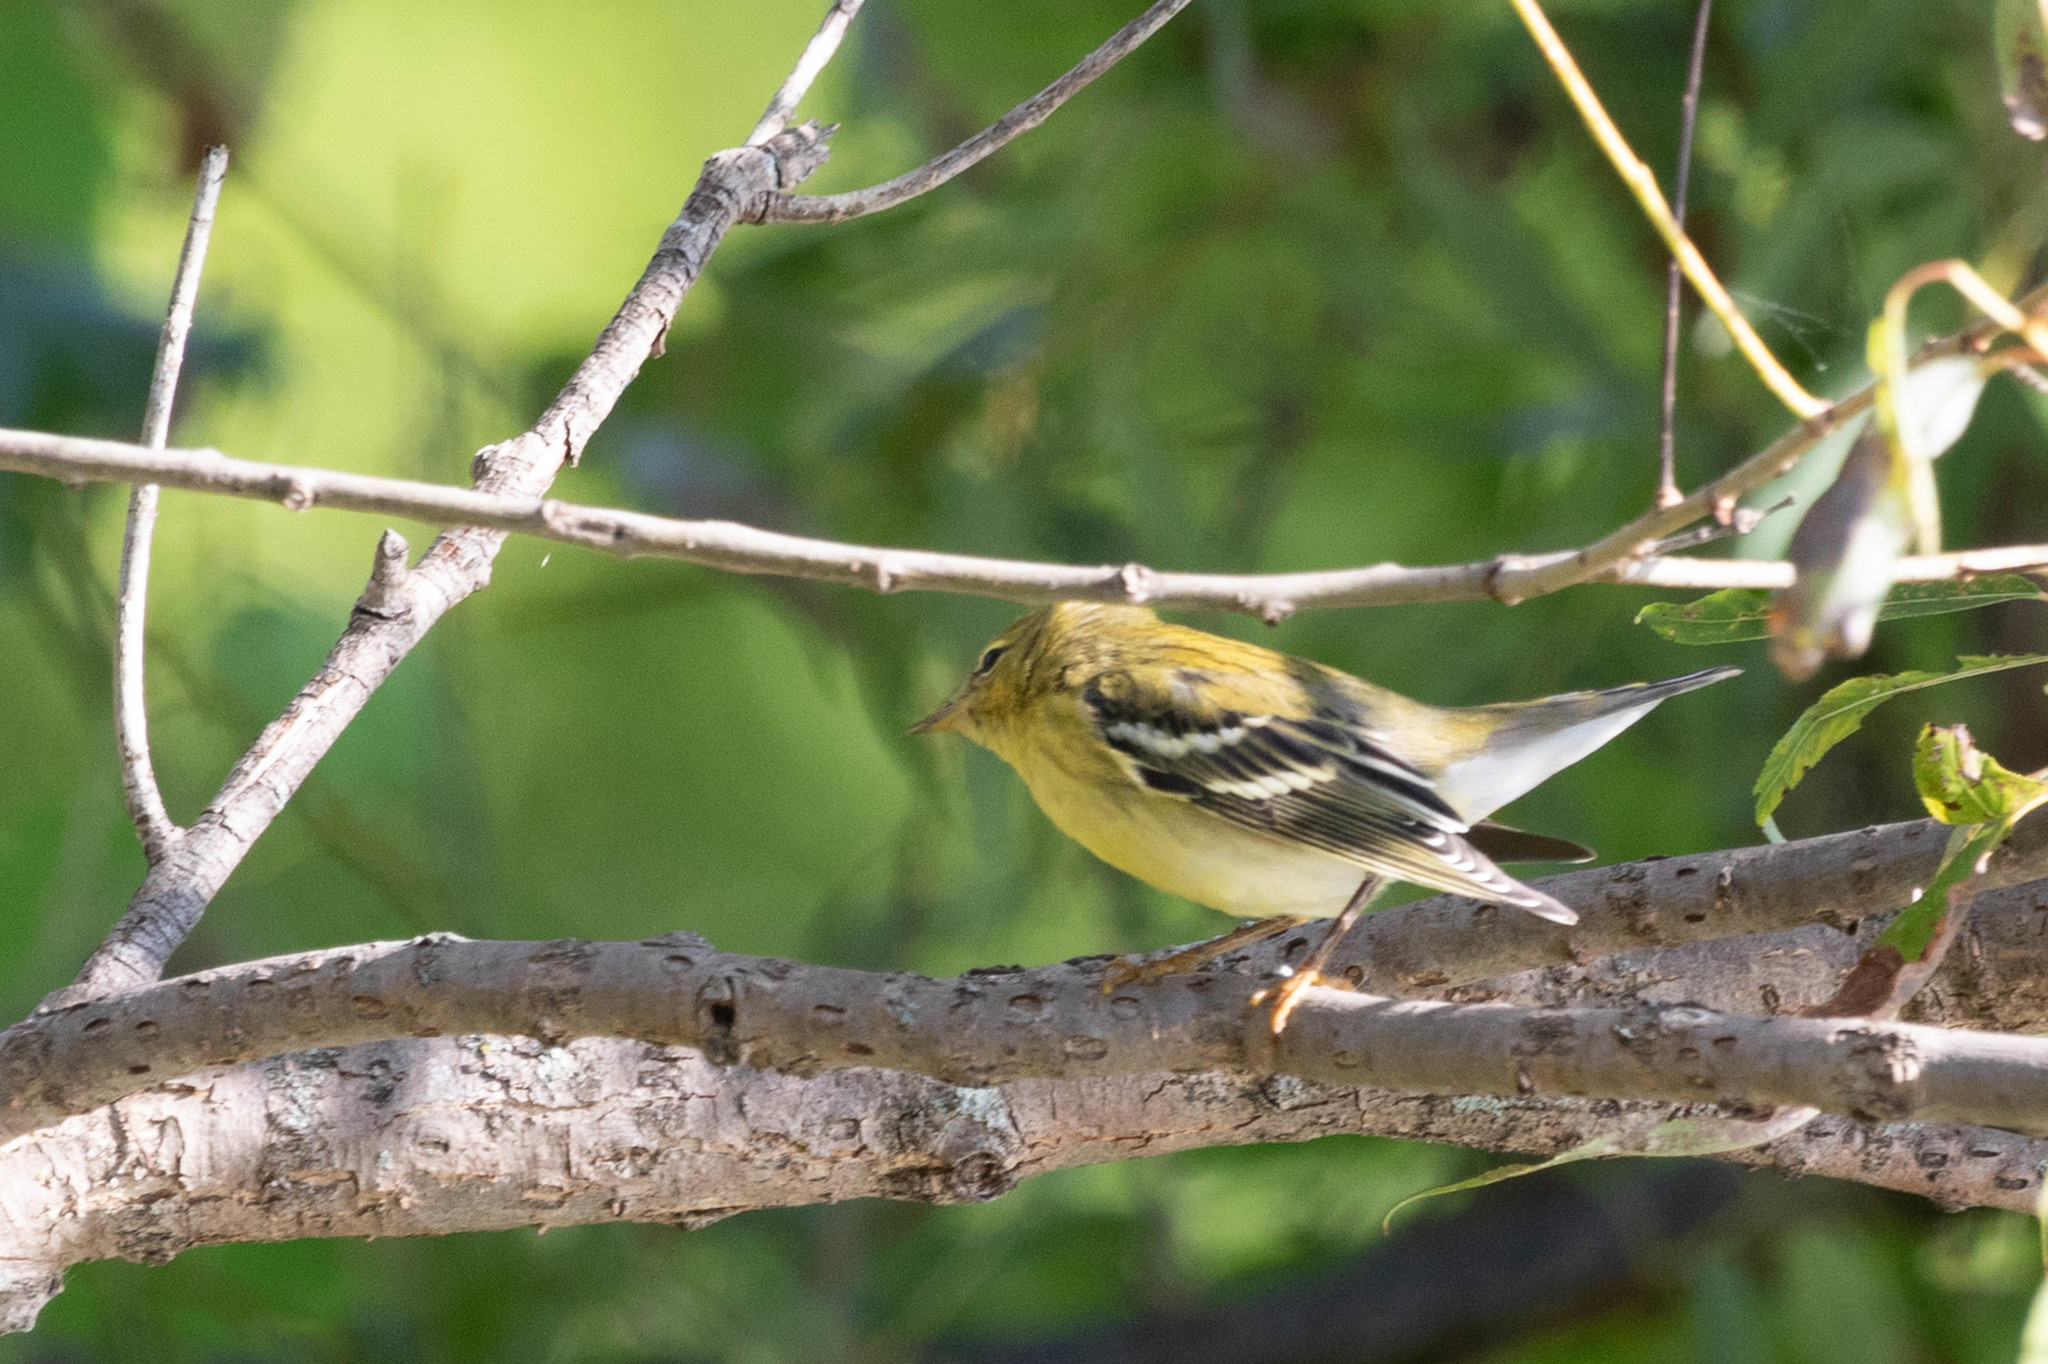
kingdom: Animalia
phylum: Chordata
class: Aves
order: Passeriformes
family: Parulidae
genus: Setophaga
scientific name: Setophaga striata
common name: Blackpoll warbler
